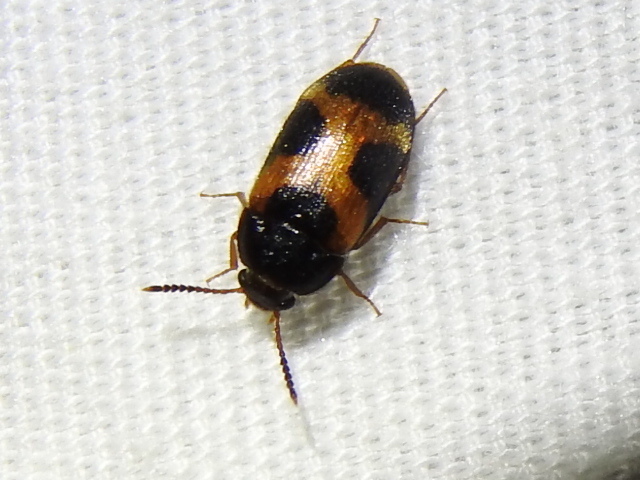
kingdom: Animalia
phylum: Arthropoda
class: Insecta
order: Coleoptera
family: Mycetophagidae
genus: Mycetophagus
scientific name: Mycetophagus punctatus
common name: Hairy fungus beetle
